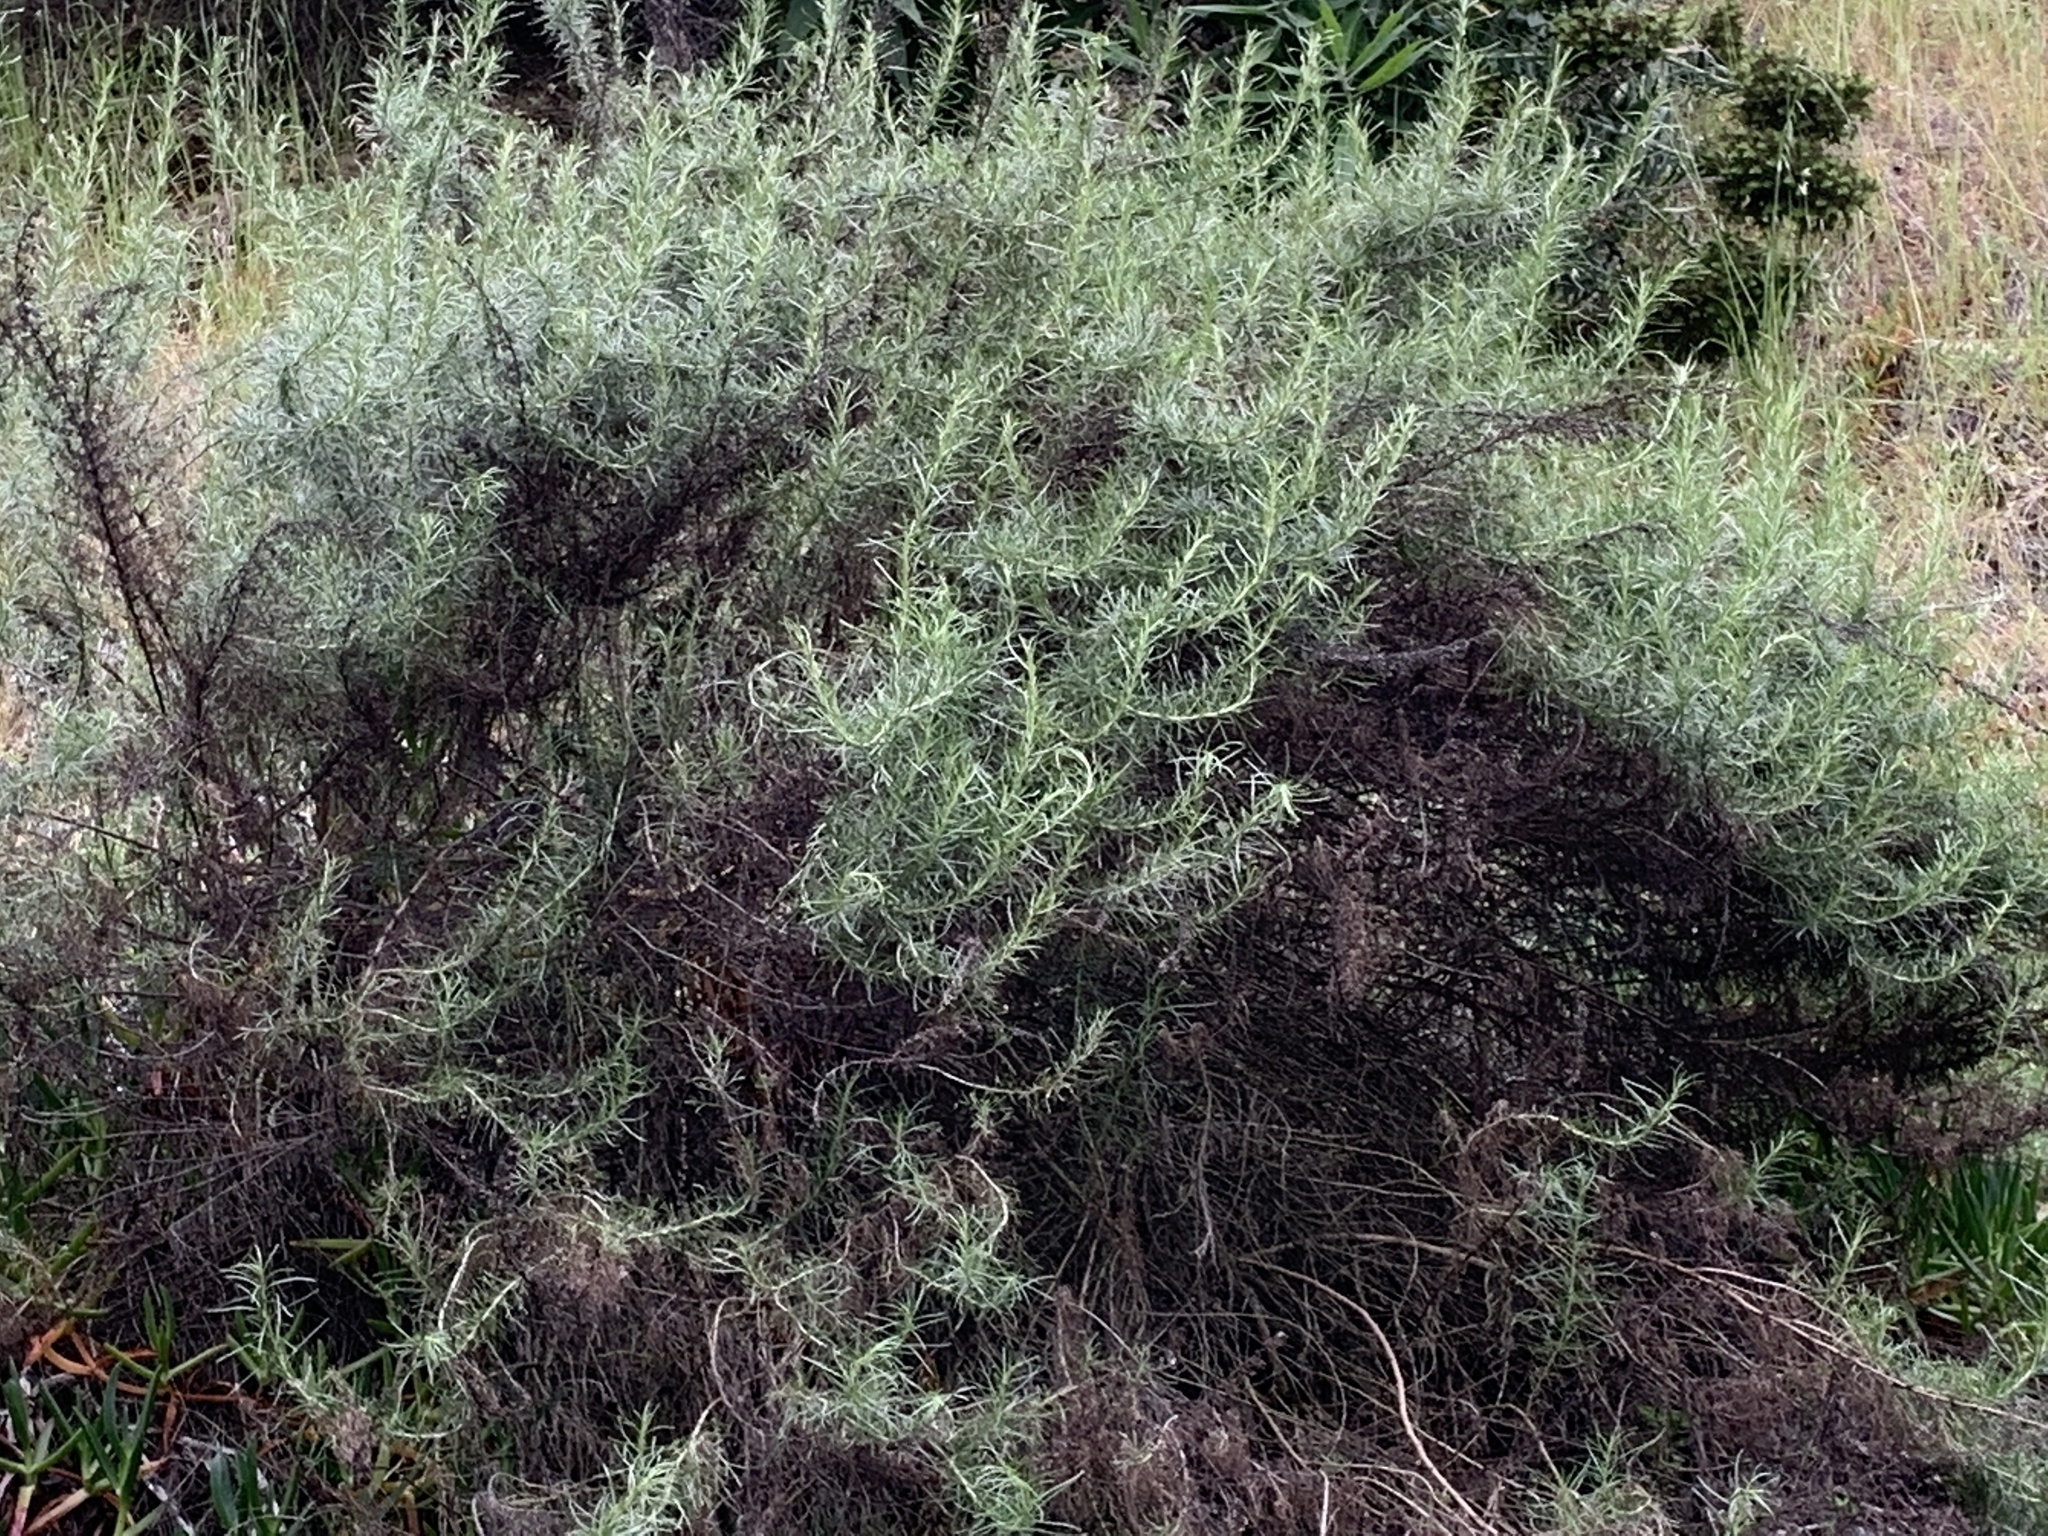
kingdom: Plantae
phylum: Tracheophyta
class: Magnoliopsida
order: Asterales
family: Asteraceae
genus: Artemisia
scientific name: Artemisia californica
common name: California sagebrush
